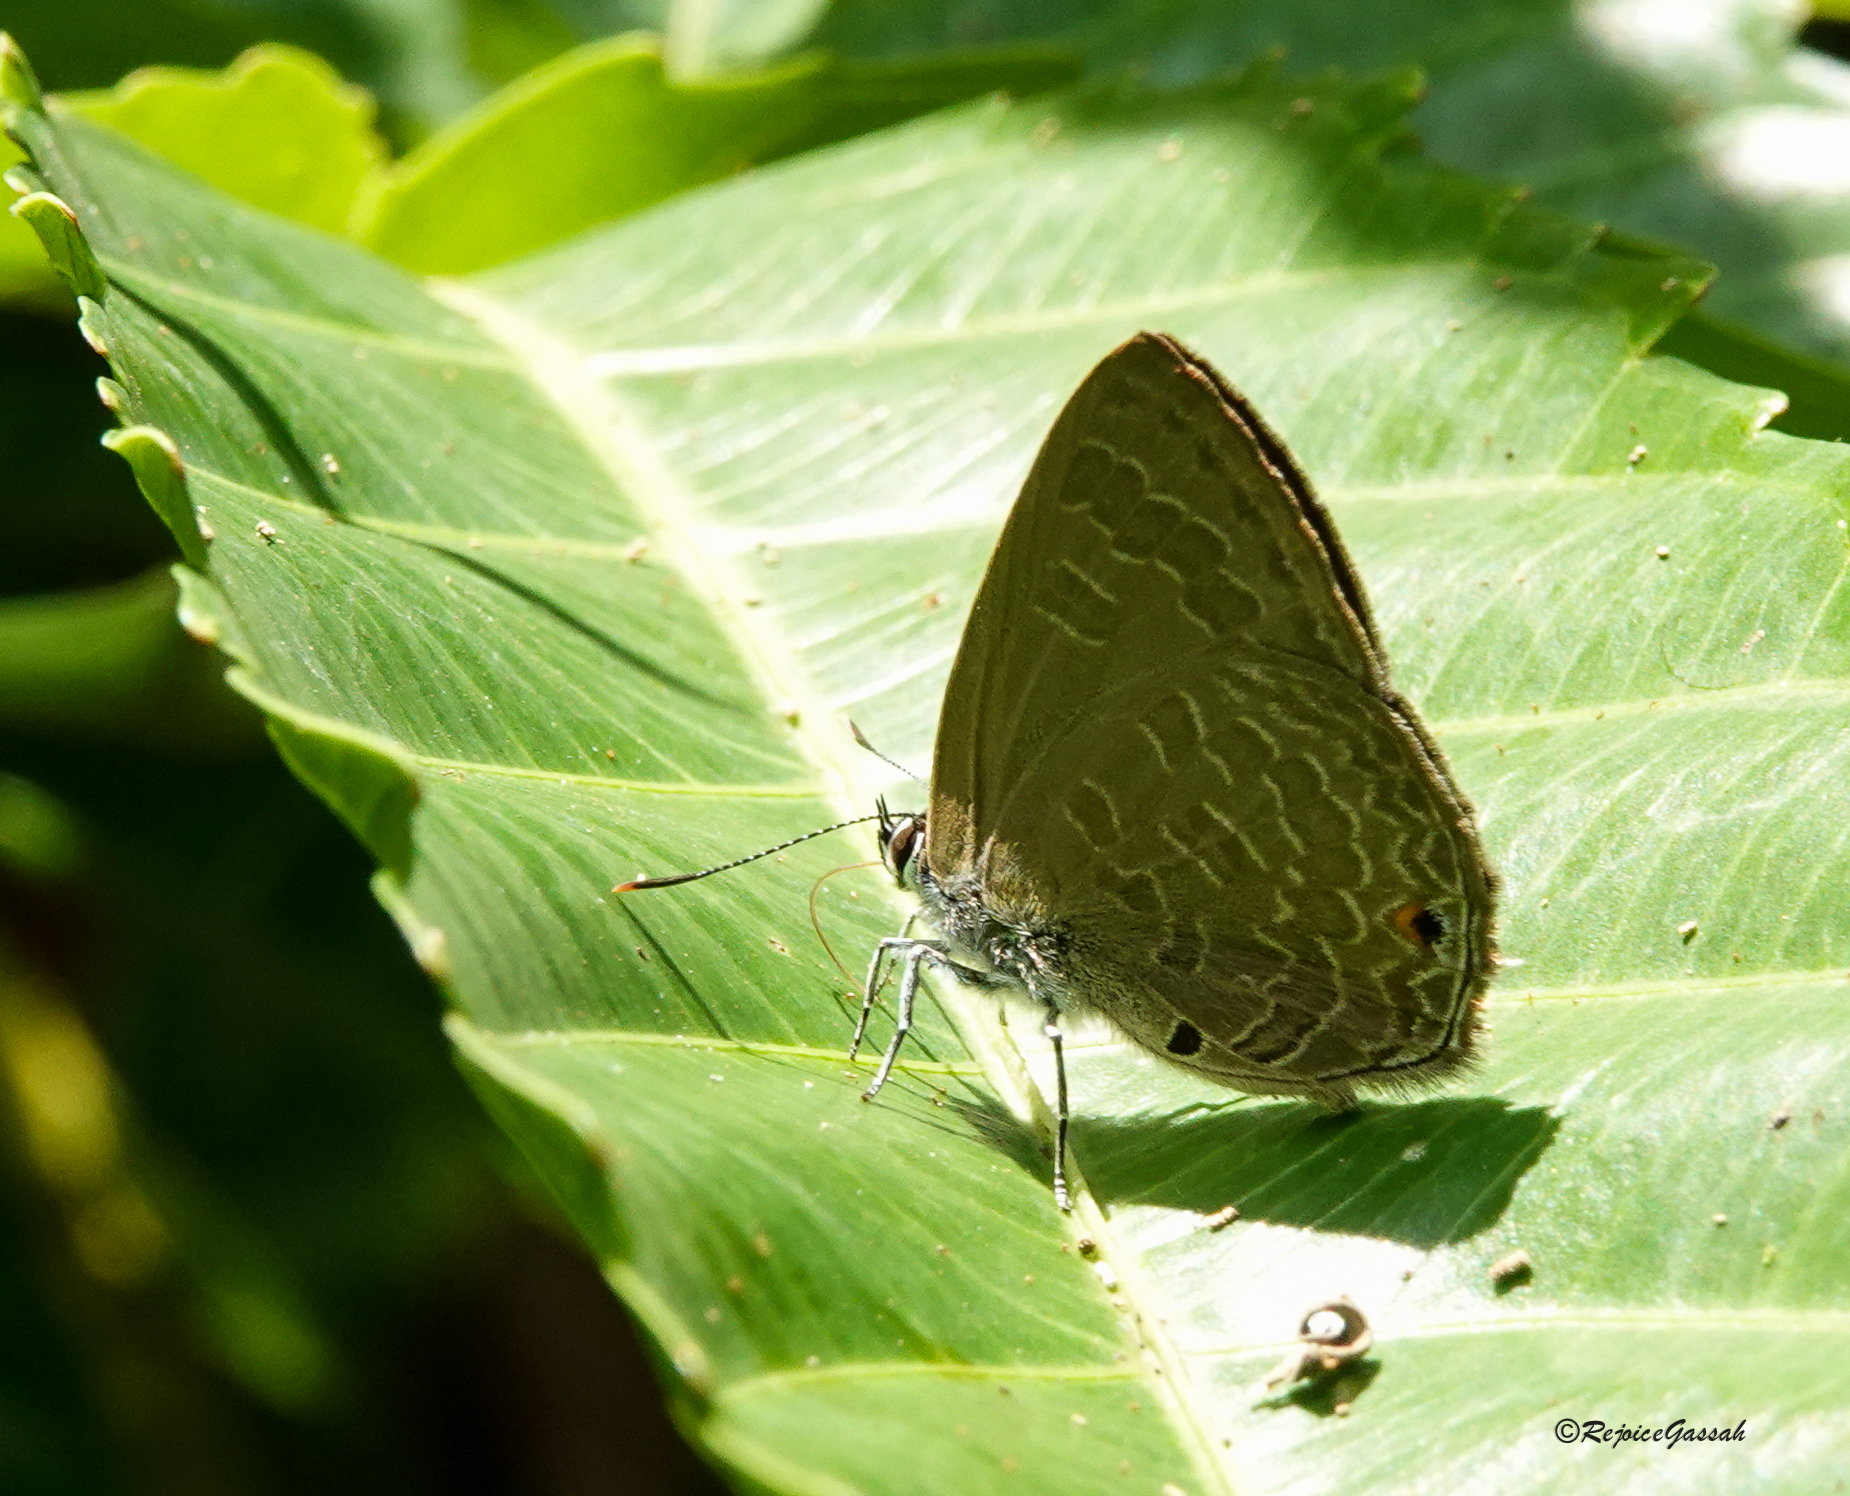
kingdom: Animalia
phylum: Arthropoda
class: Insecta
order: Lepidoptera
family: Lycaenidae
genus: Anthene
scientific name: Anthene emolus
